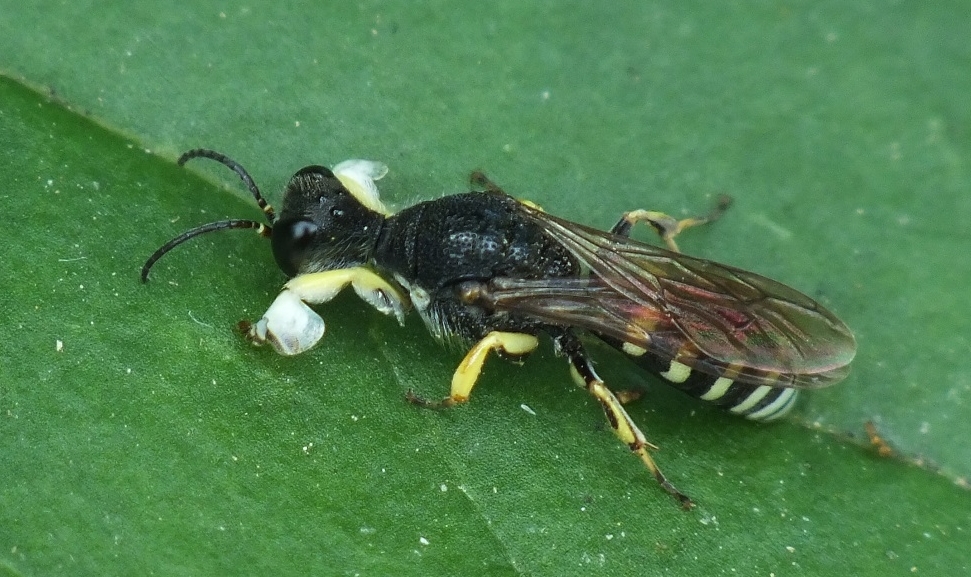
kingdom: Animalia
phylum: Arthropoda
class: Insecta
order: Hymenoptera
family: Crabronidae
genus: Lestica
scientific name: Lestica clypeata
